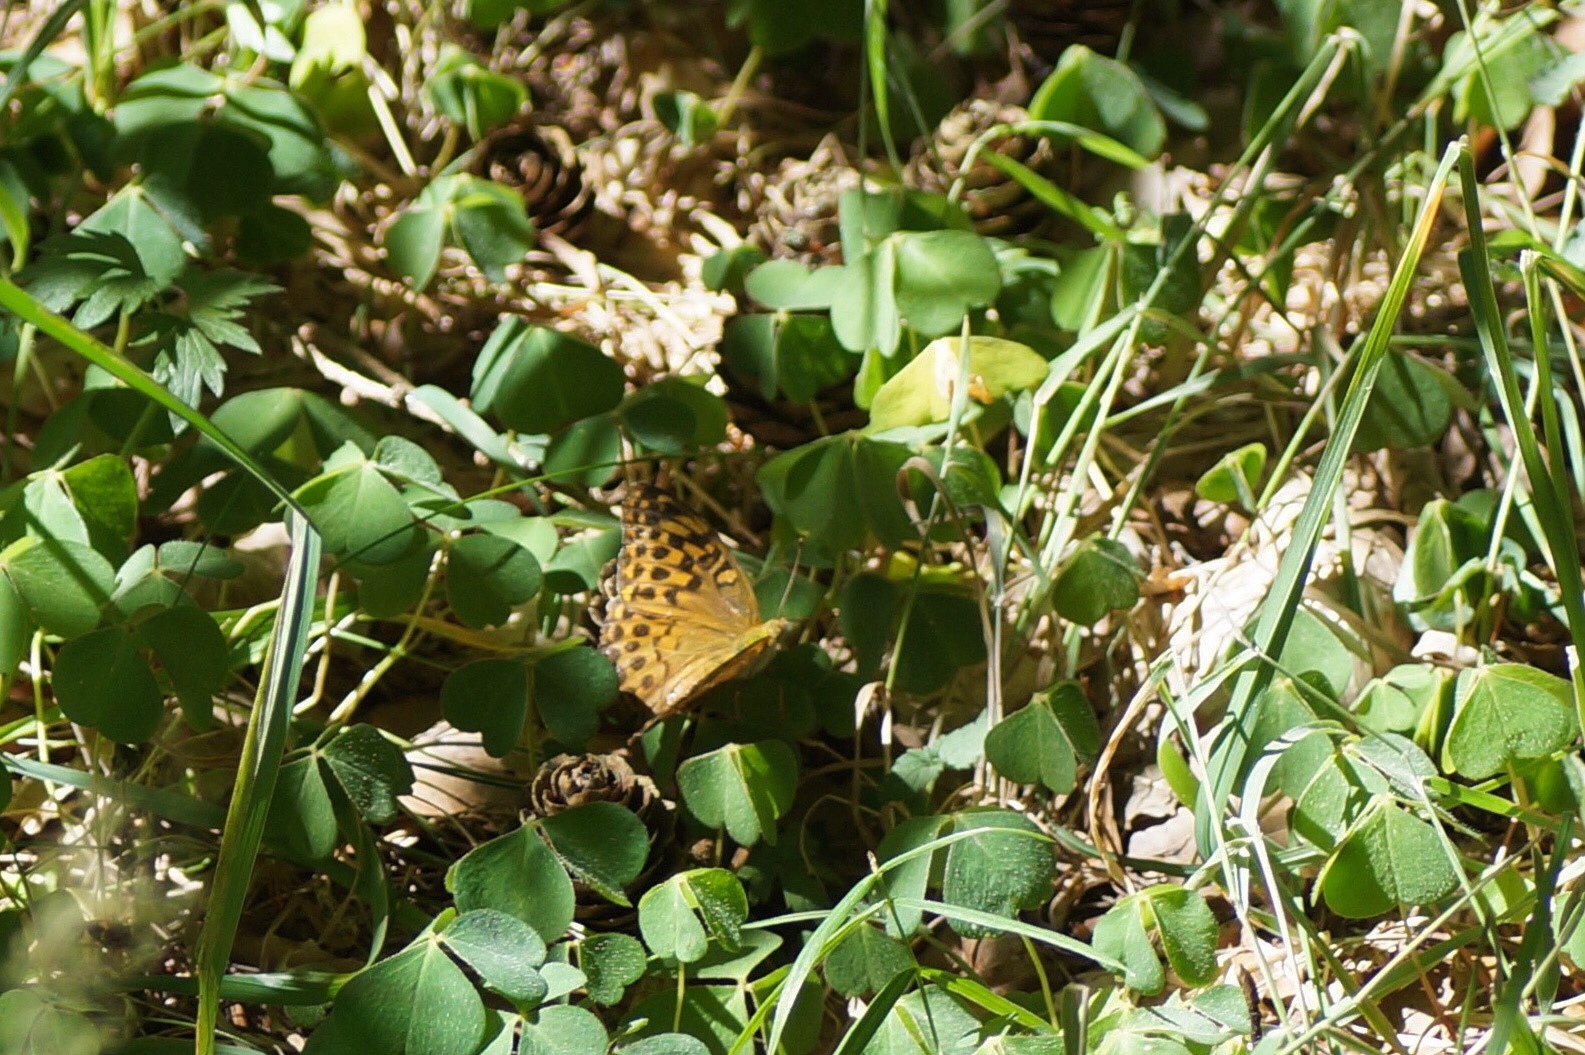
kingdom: Animalia
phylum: Arthropoda
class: Insecta
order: Lepidoptera
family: Nymphalidae
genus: Argynnis
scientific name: Argynnis paphia
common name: Silver-washed fritillary
